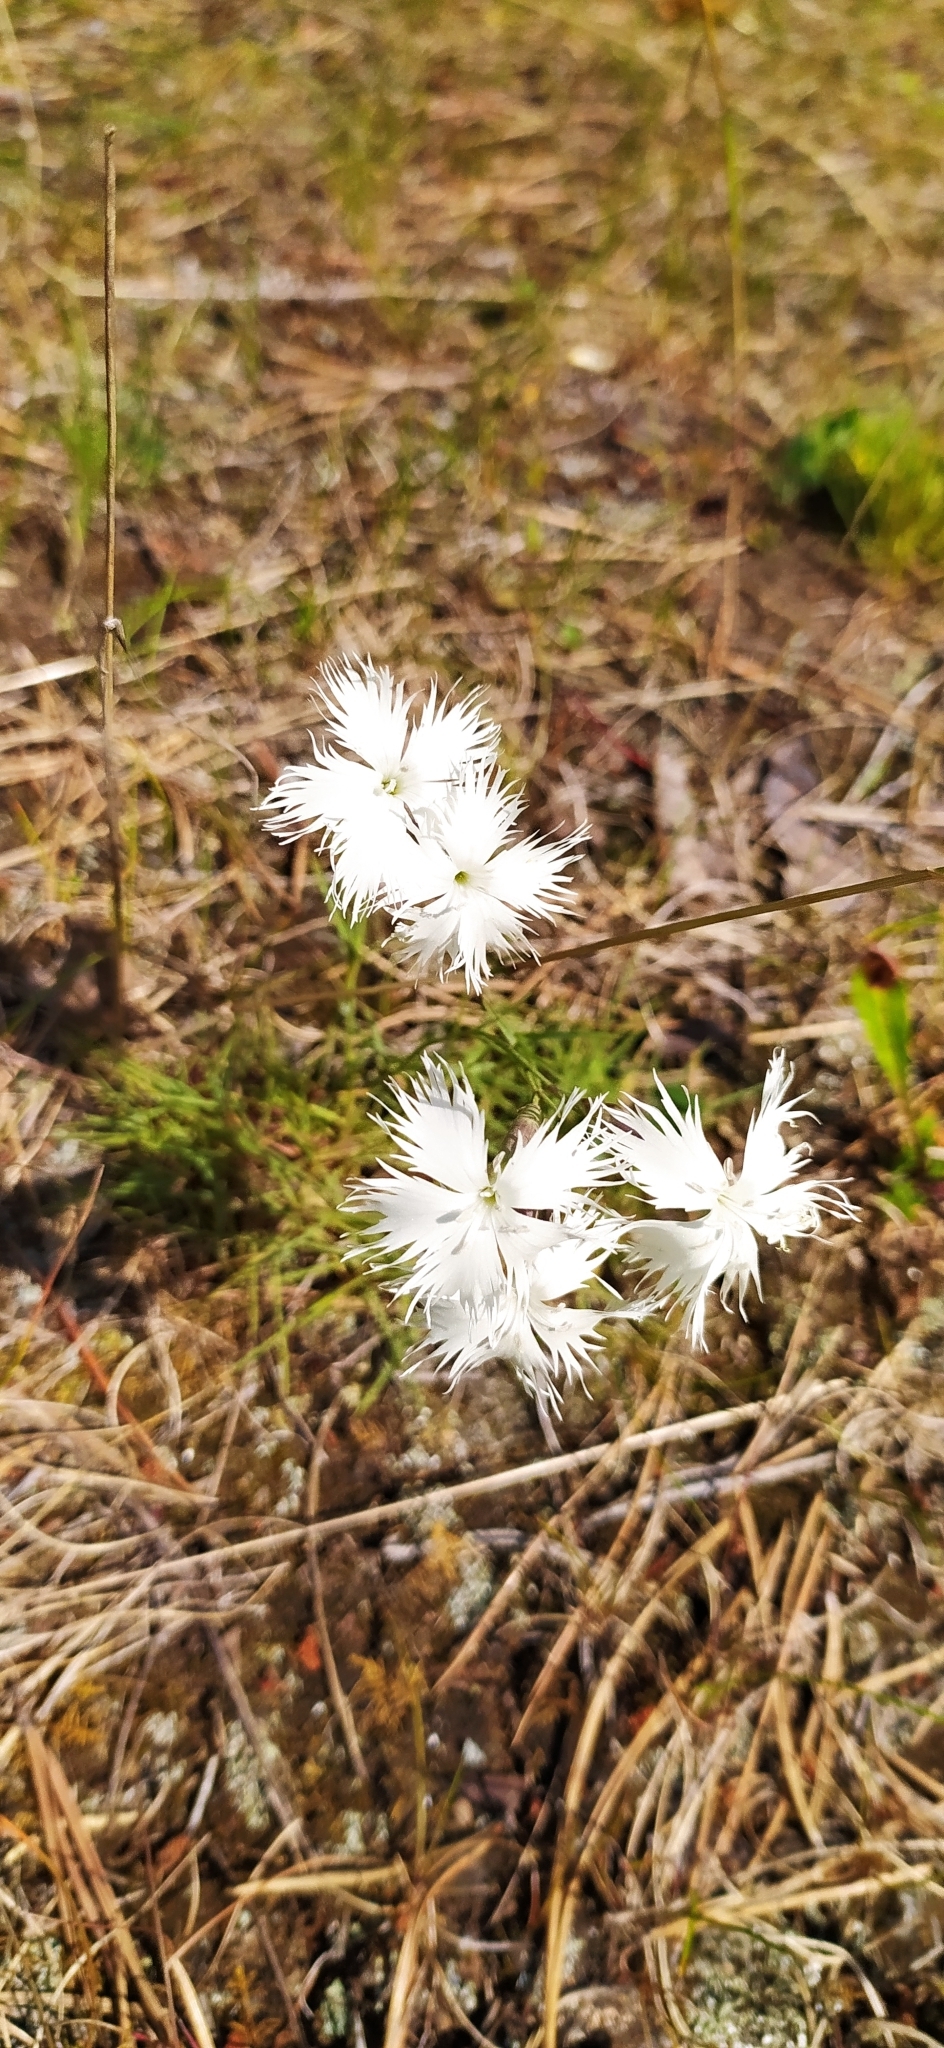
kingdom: Plantae
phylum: Tracheophyta
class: Magnoliopsida
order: Caryophyllales
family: Caryophyllaceae
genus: Dianthus
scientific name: Dianthus acicularis
